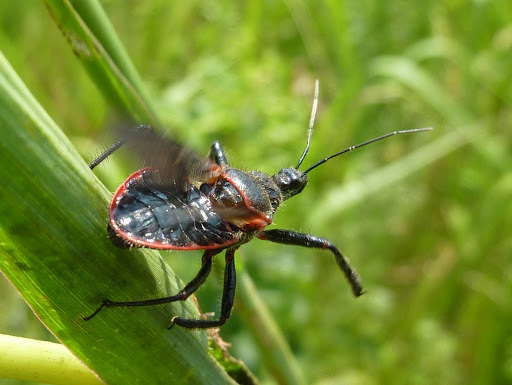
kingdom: Animalia
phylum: Arthropoda
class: Insecta
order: Hemiptera
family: Reduviidae
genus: Apiomerus
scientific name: Apiomerus crassipes
